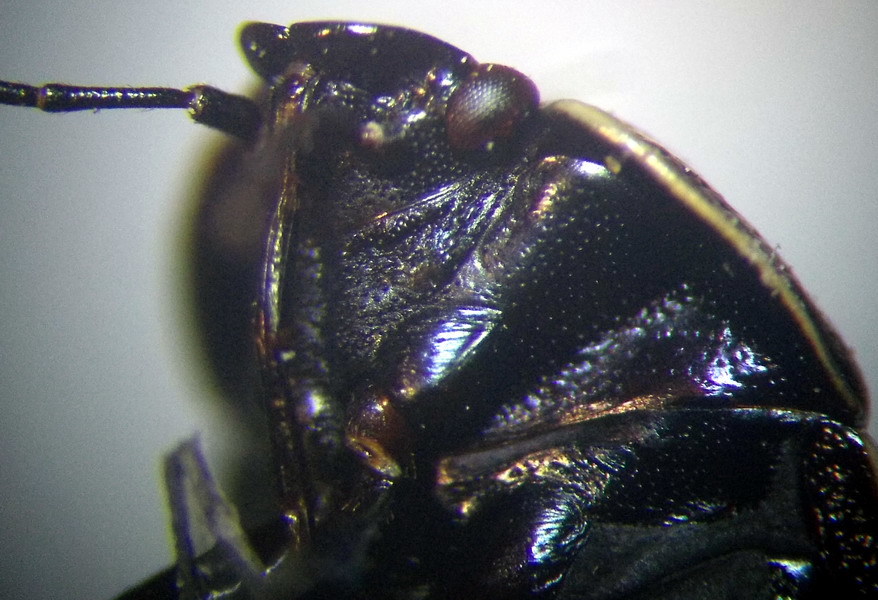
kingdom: Animalia
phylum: Arthropoda
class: Insecta
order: Hemiptera
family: Cydnidae
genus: Canthophorus
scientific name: Canthophorus mixtus
